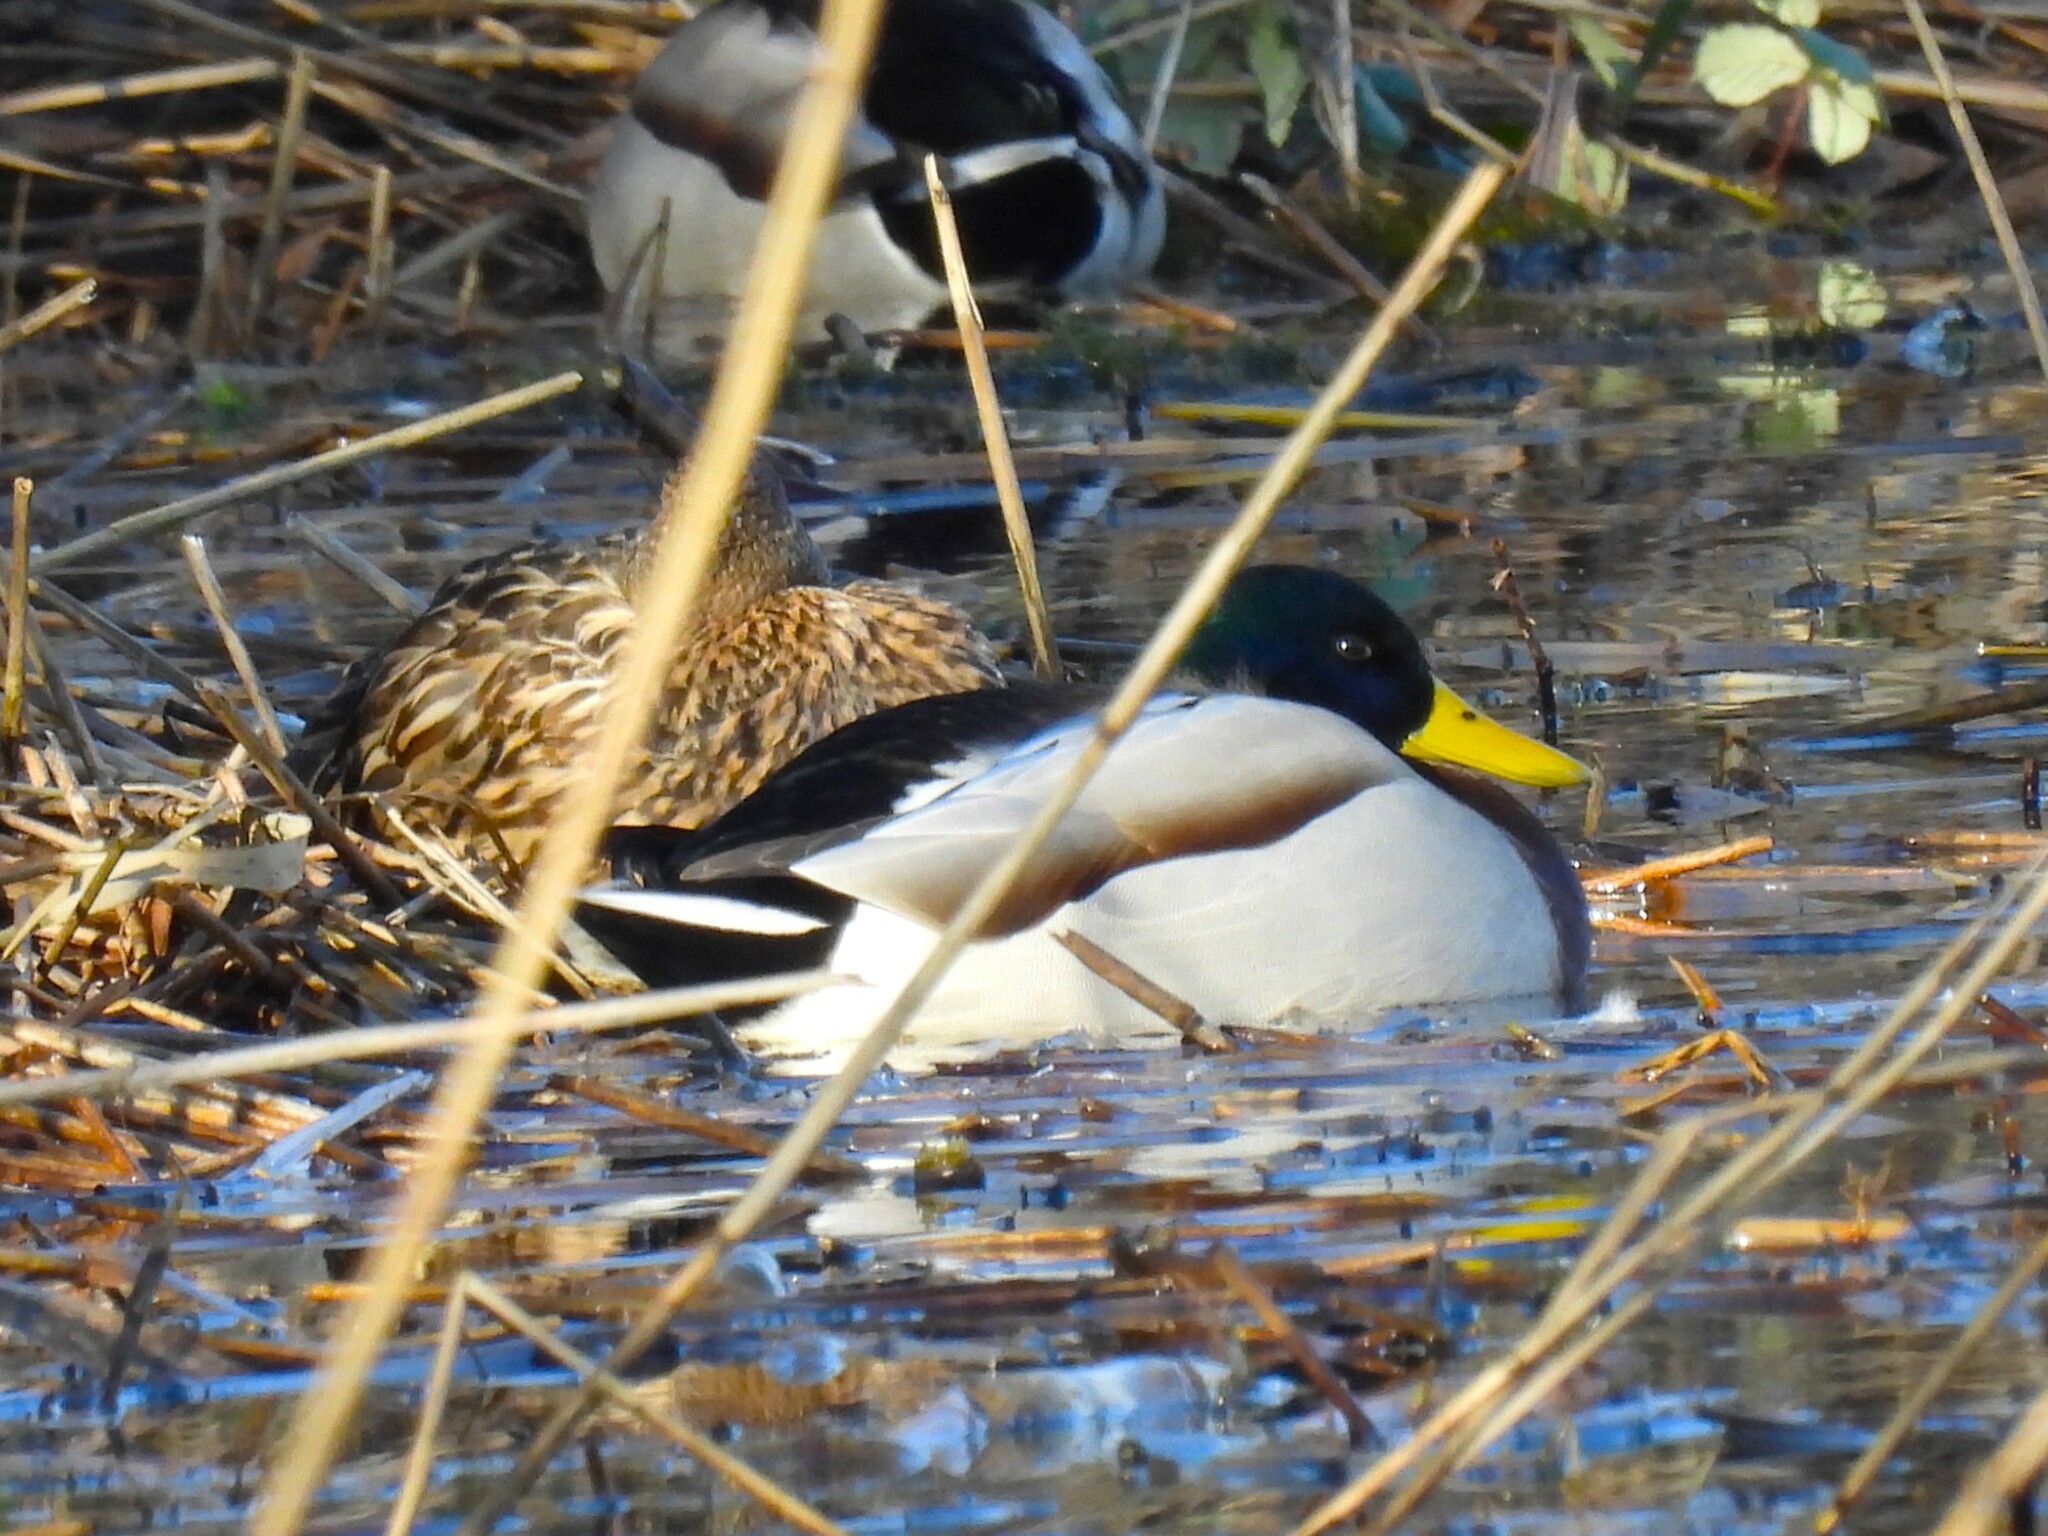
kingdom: Animalia
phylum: Chordata
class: Aves
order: Anseriformes
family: Anatidae
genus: Anas
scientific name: Anas platyrhynchos
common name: Mallard
